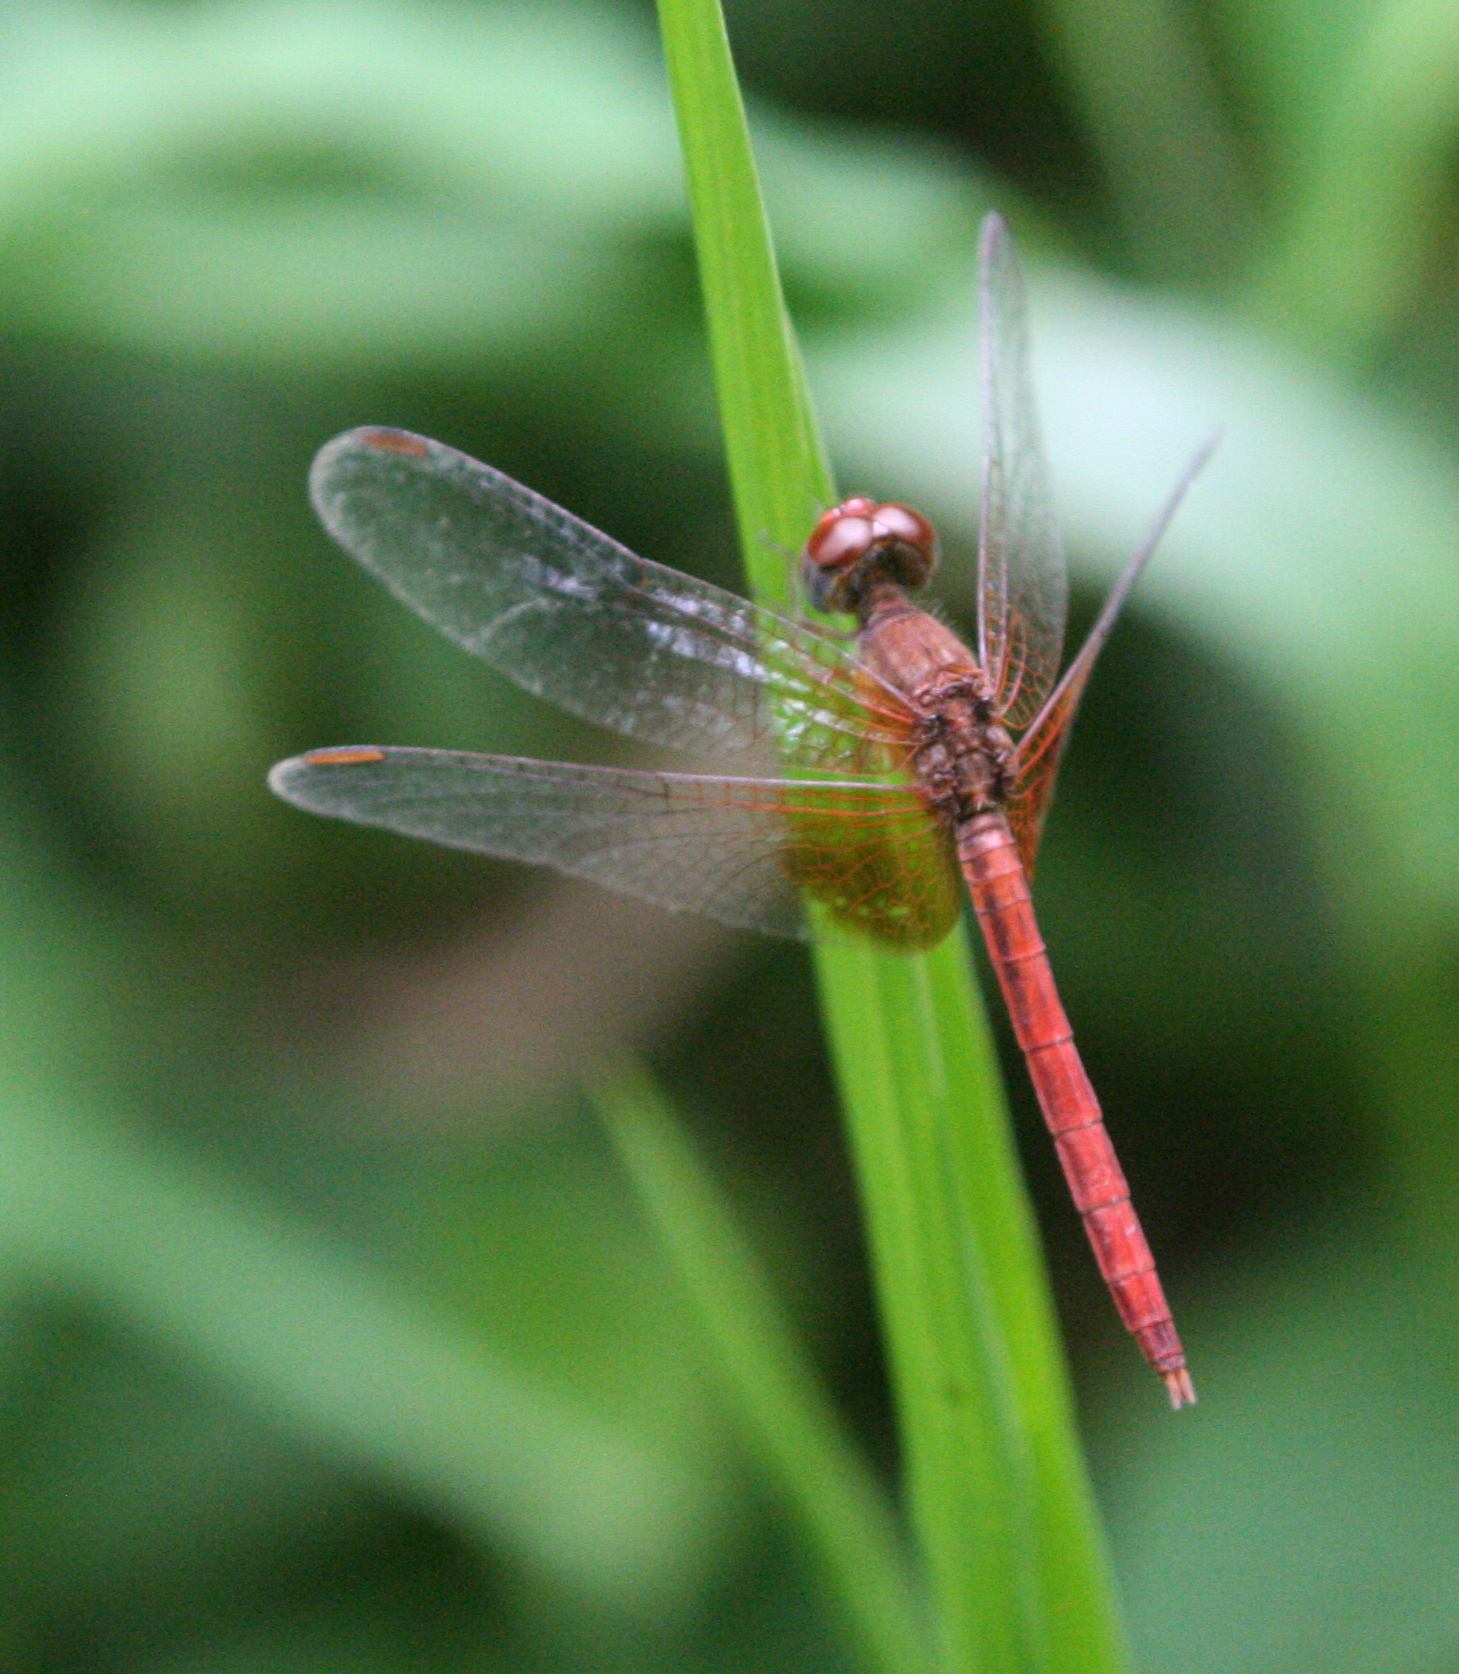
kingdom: Animalia
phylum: Arthropoda
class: Insecta
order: Odonata
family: Libellulidae
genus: Neurothemis
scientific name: Neurothemis intermedia
